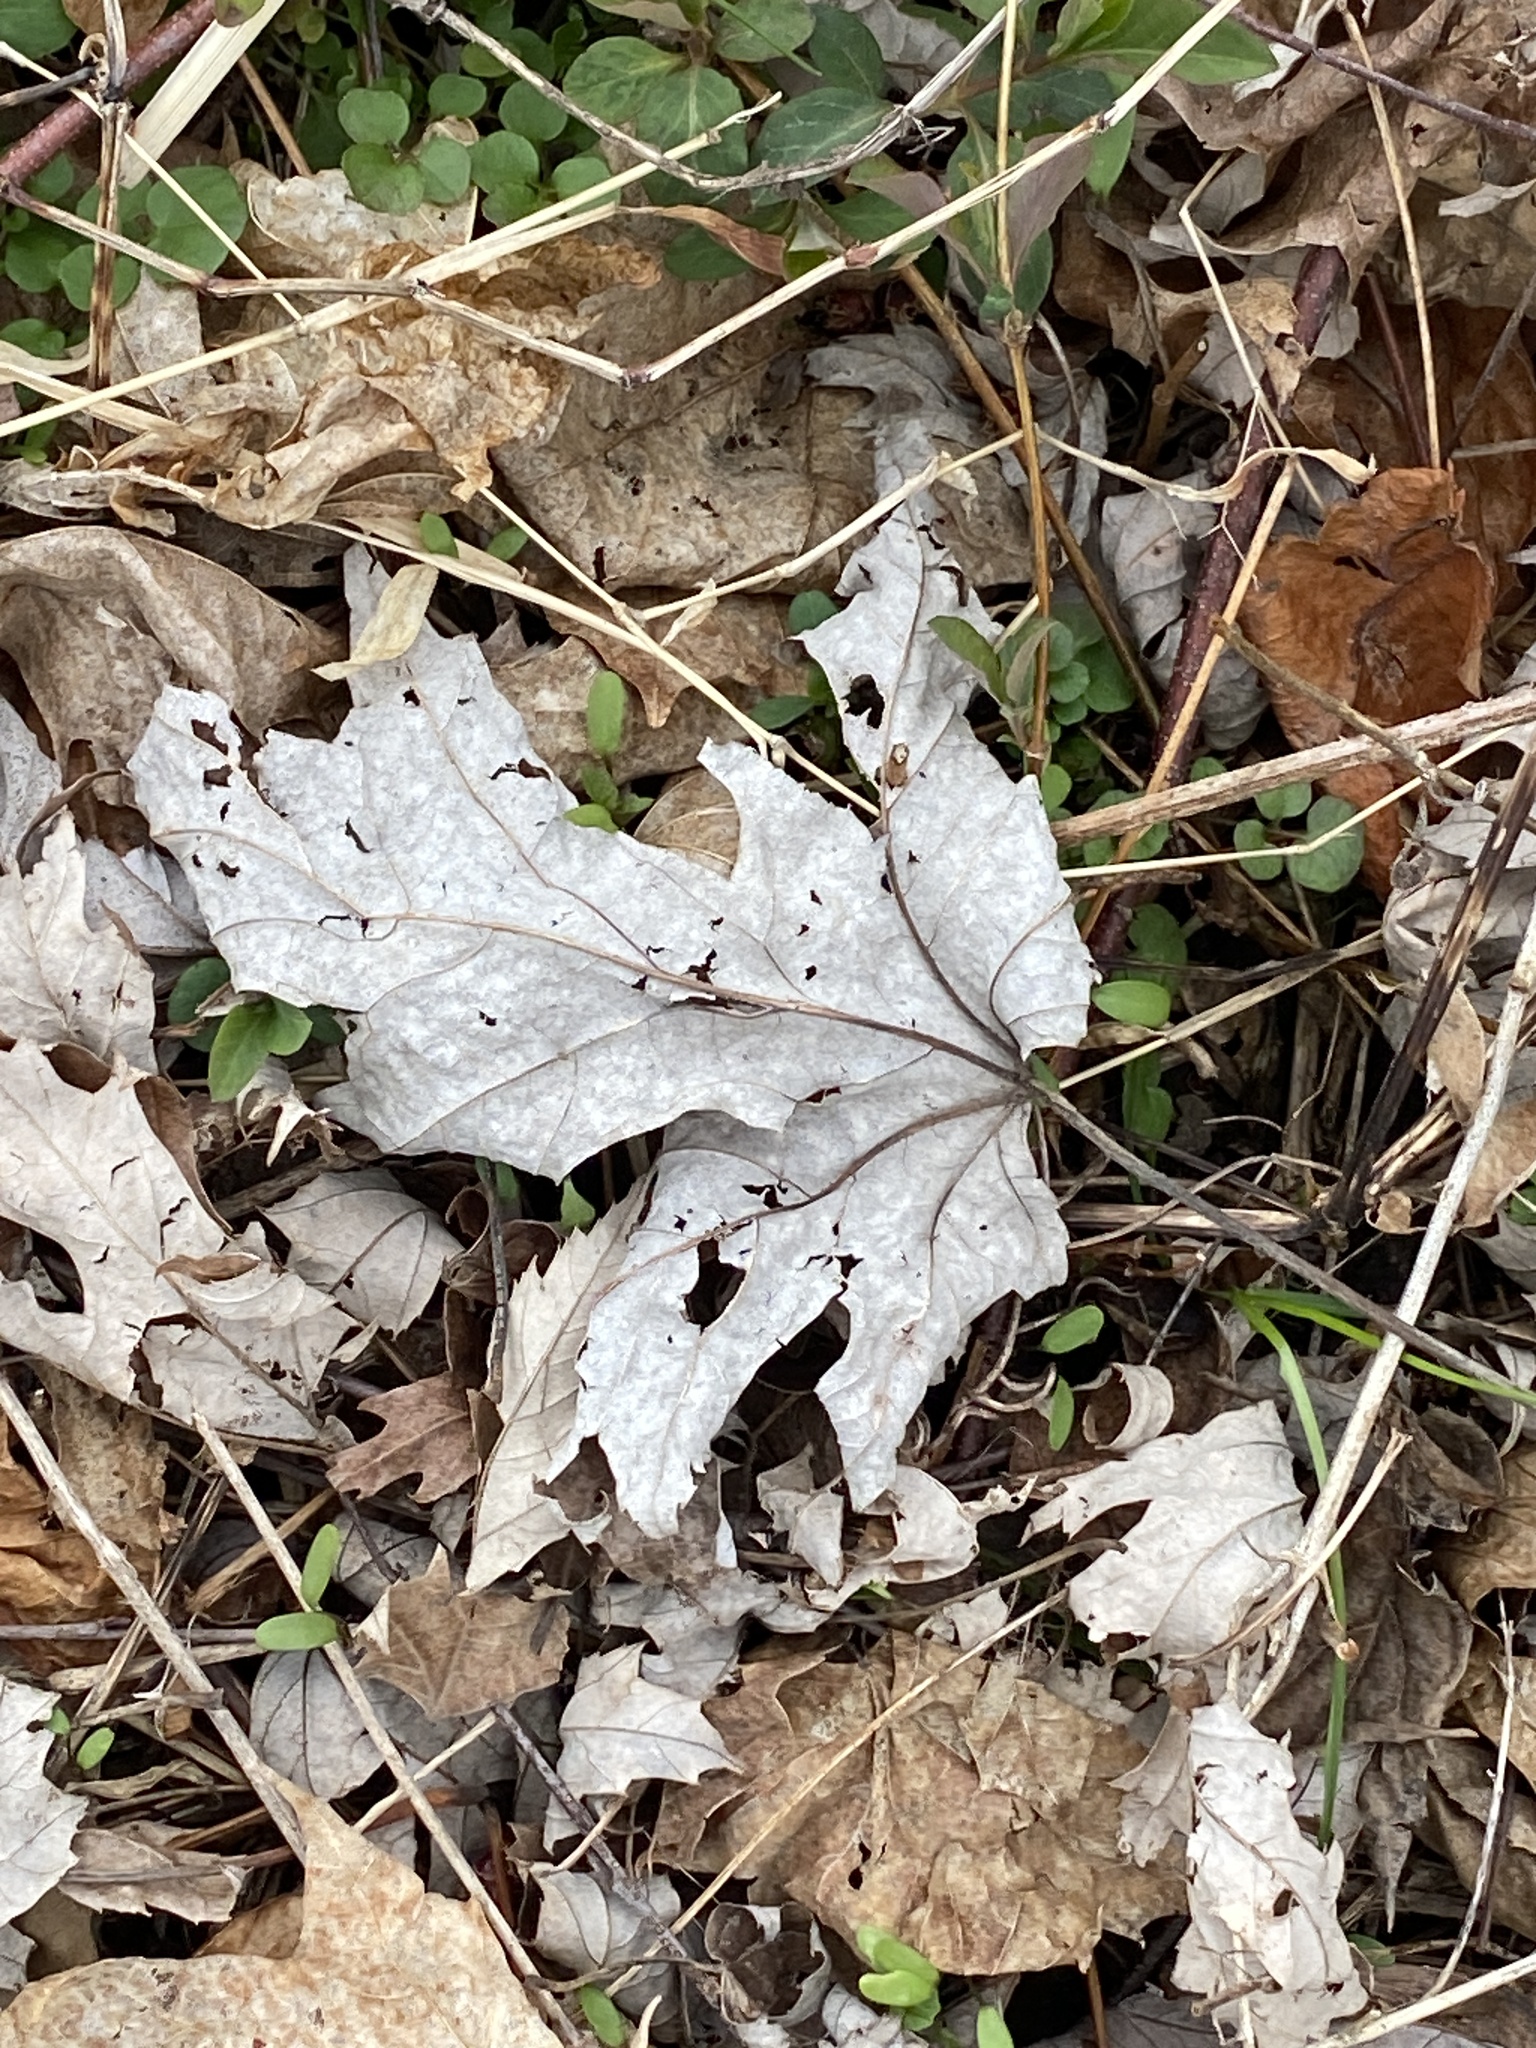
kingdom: Plantae
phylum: Tracheophyta
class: Magnoliopsida
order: Sapindales
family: Sapindaceae
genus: Acer
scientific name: Acer saccharinum
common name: Silver maple
